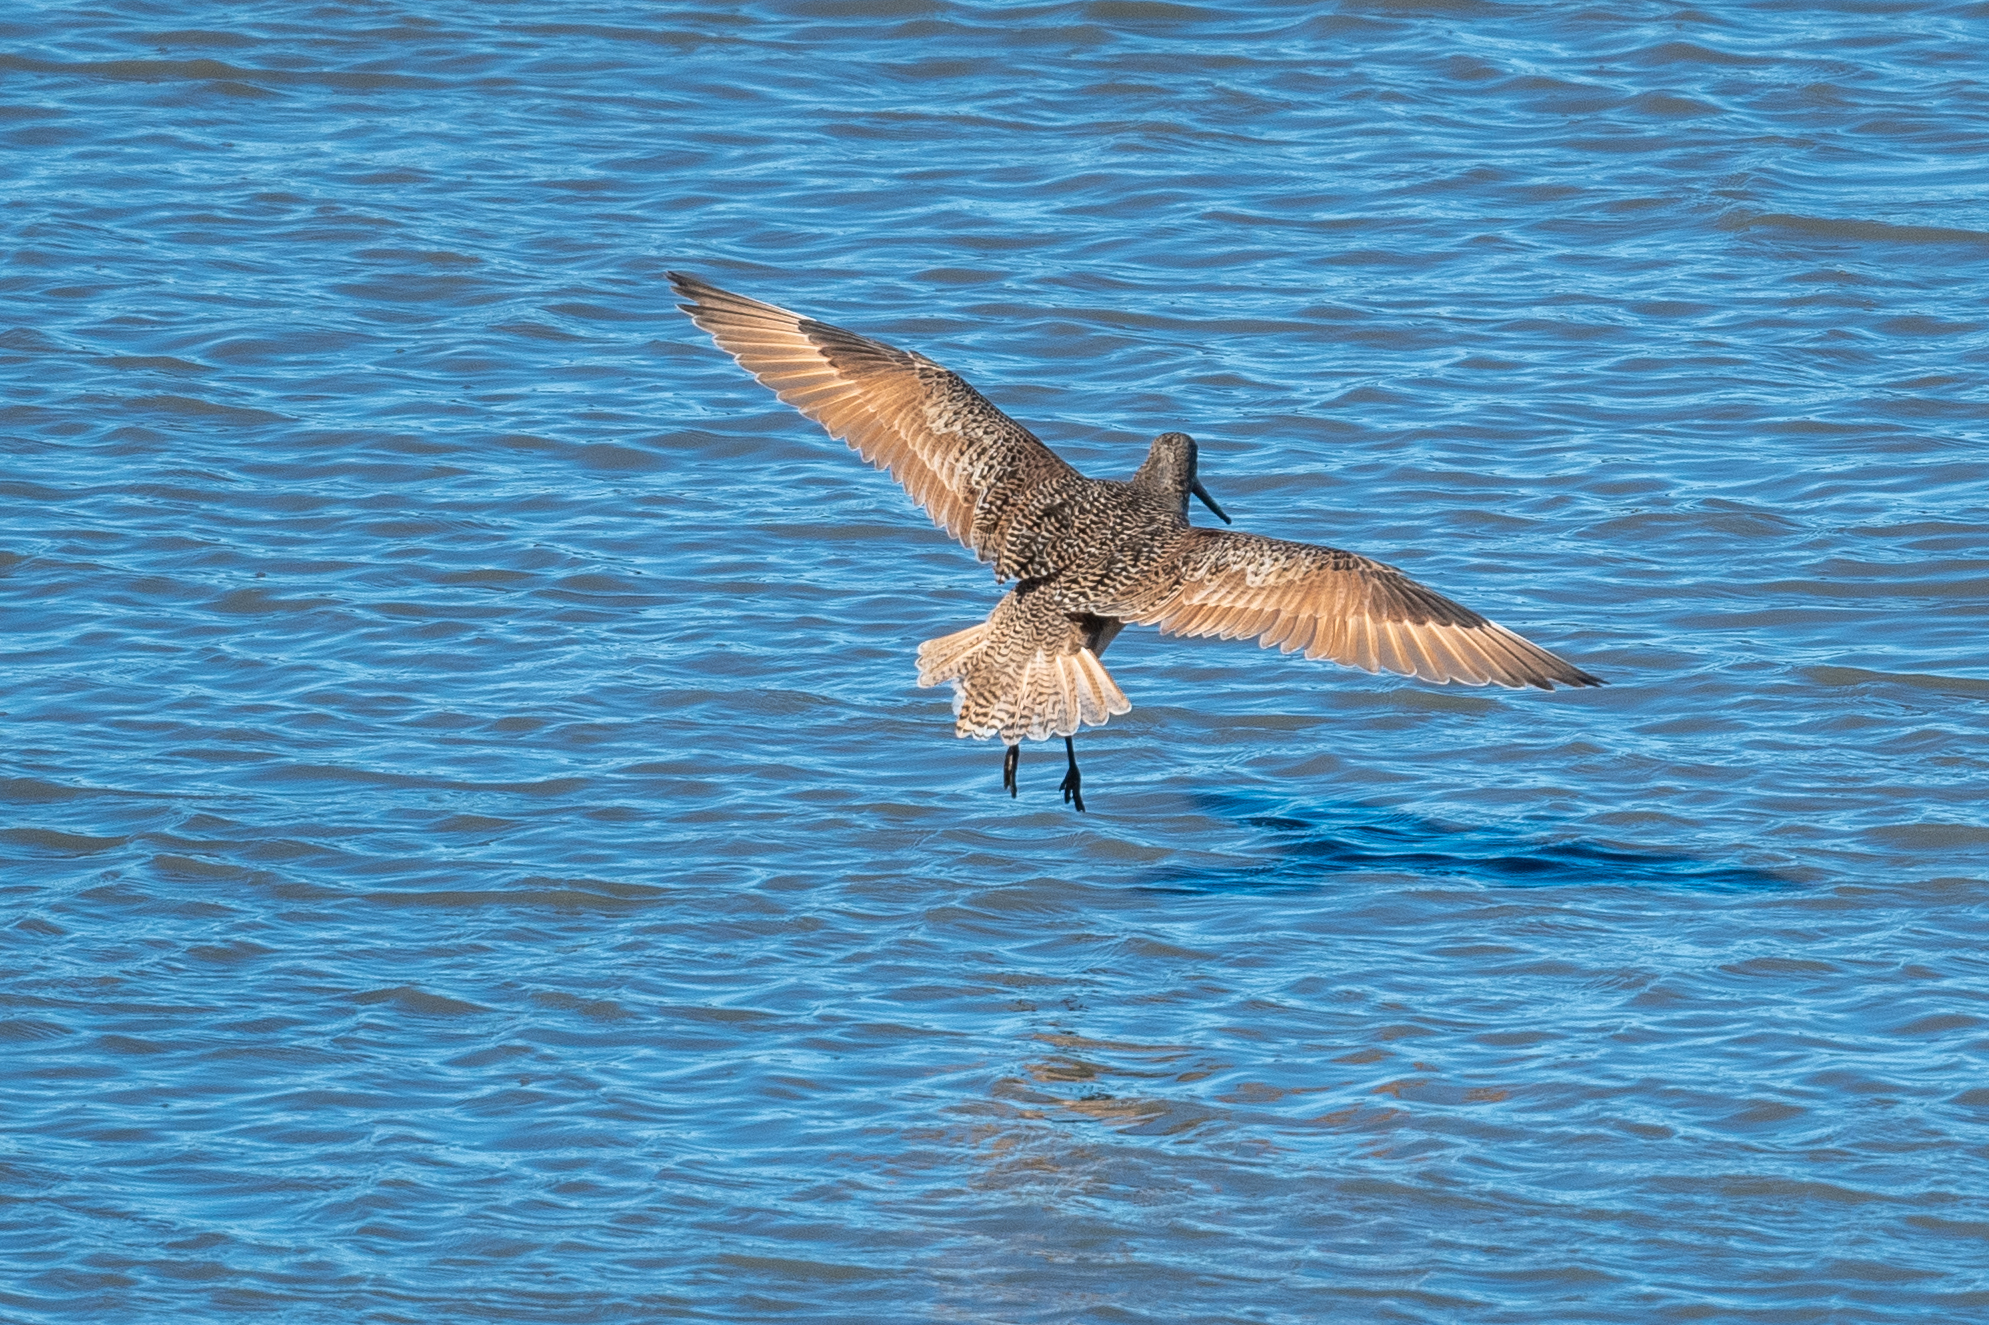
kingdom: Animalia
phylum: Chordata
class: Aves
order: Charadriiformes
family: Scolopacidae
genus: Limosa
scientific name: Limosa fedoa
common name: Marbled godwit
